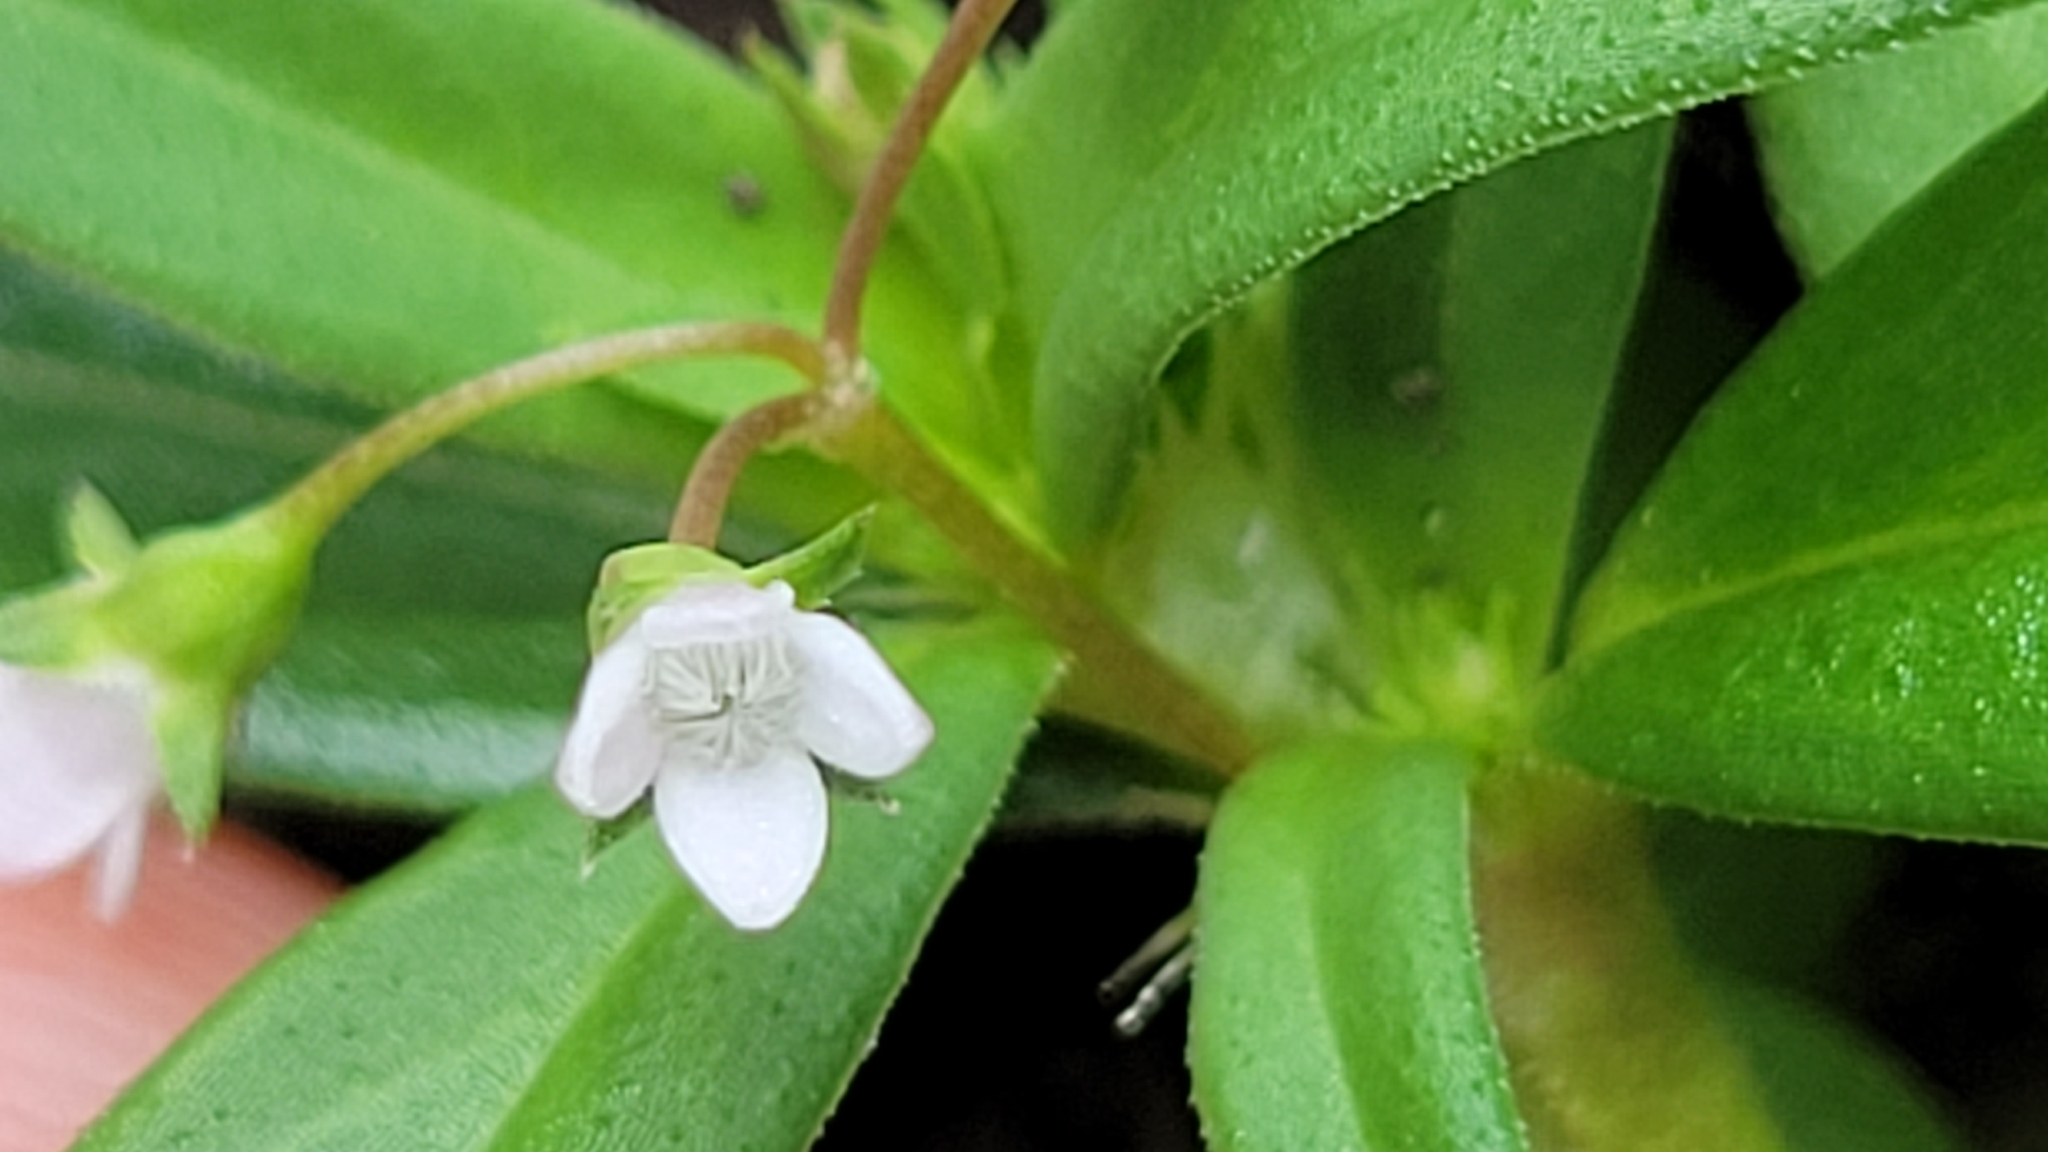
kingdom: Plantae
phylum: Tracheophyta
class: Magnoliopsida
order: Gentianales
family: Rubiaceae
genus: Oldenlandia
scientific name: Oldenlandia corymbosa
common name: Flat-top mille graines
